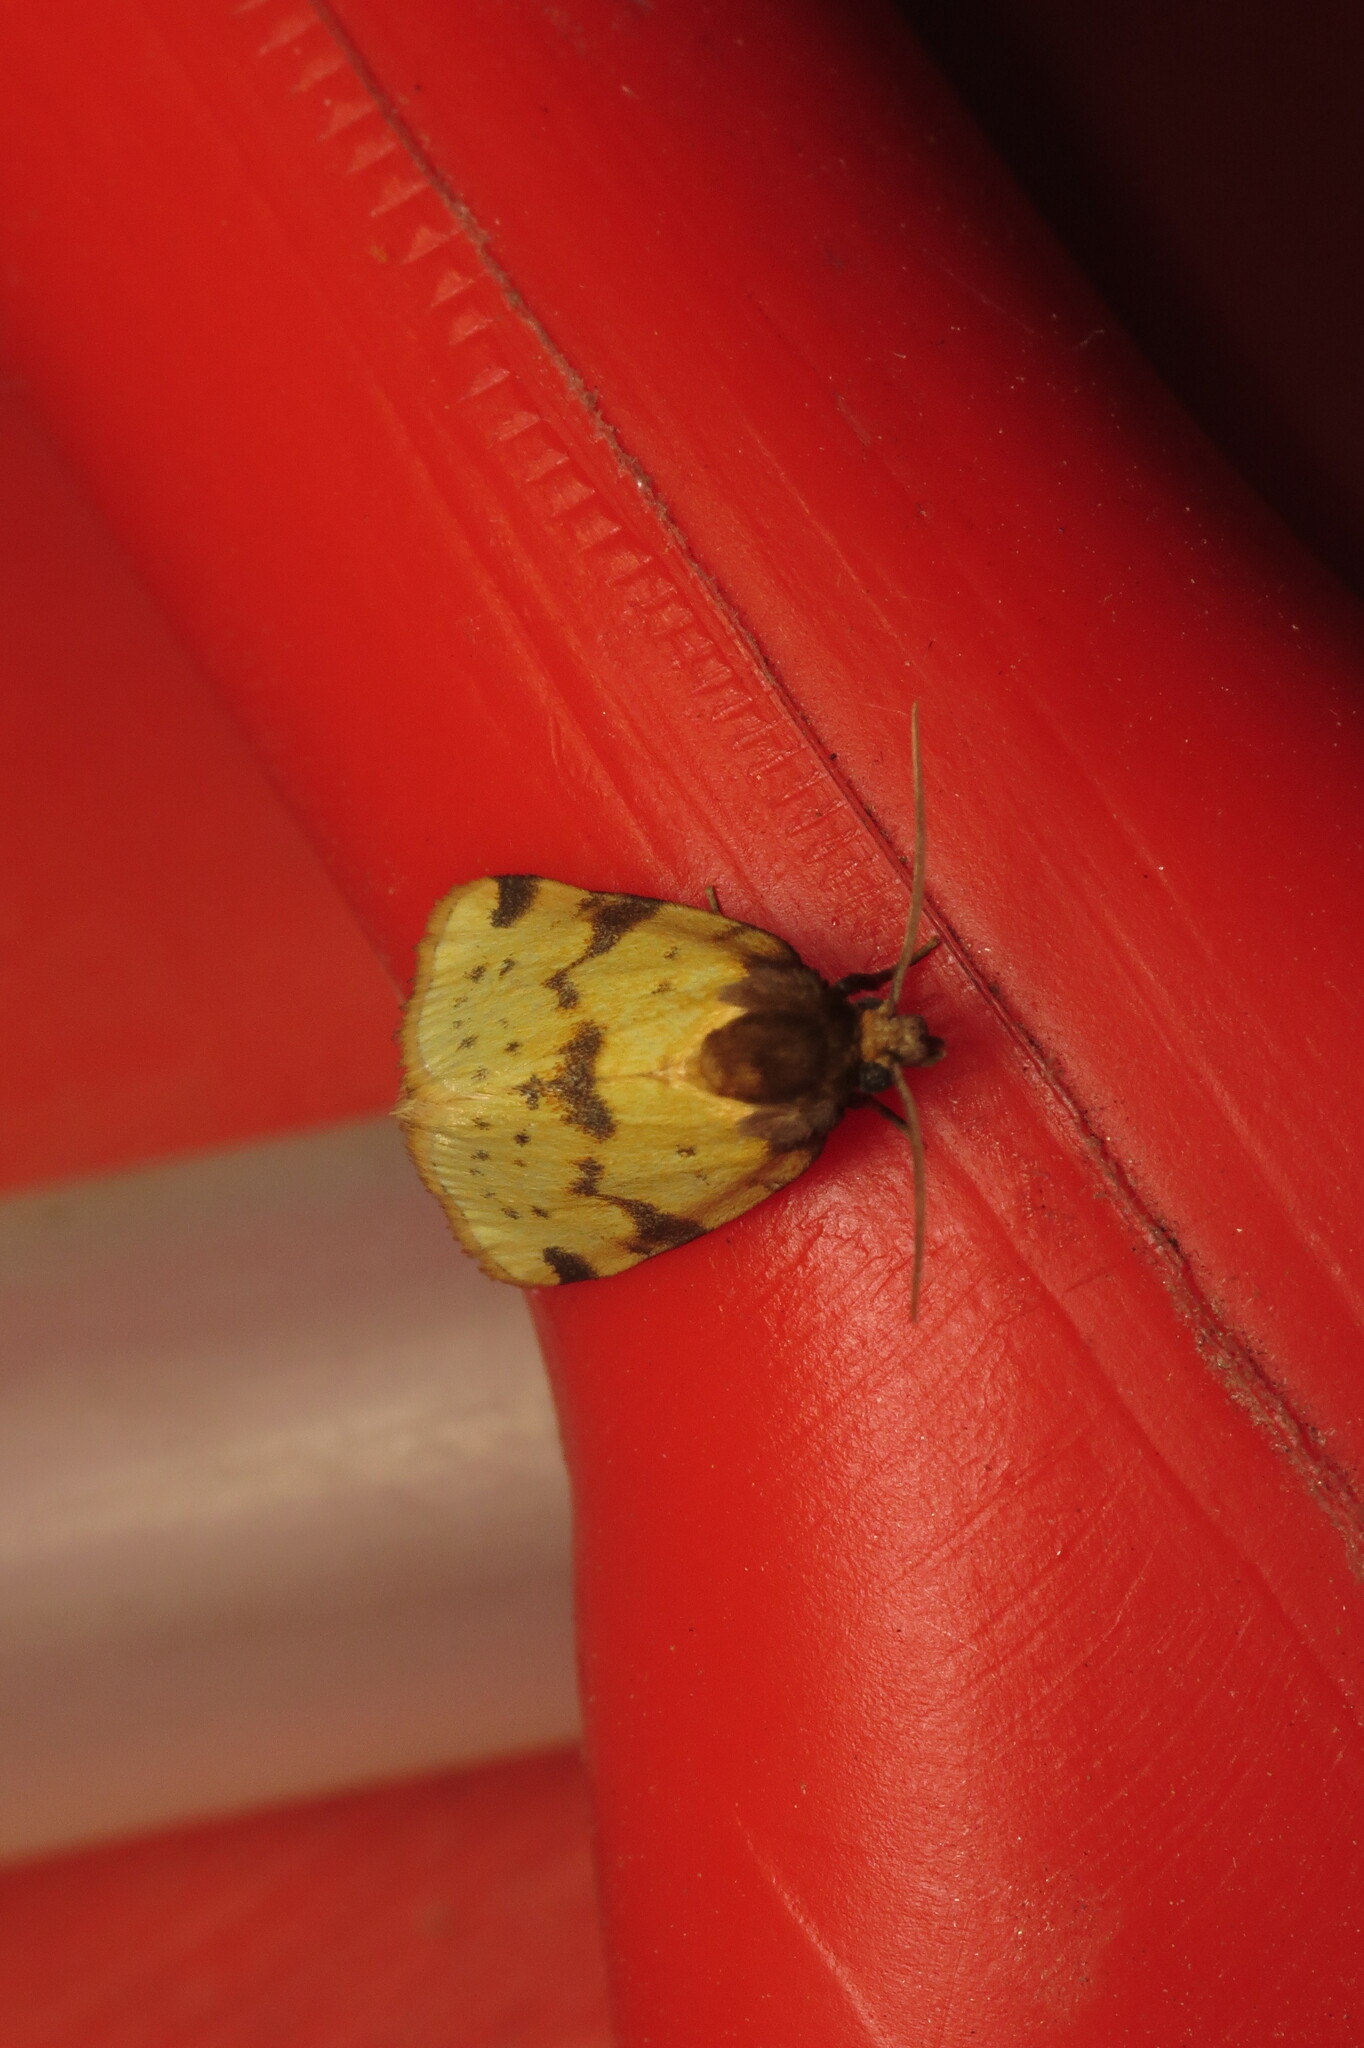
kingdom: Animalia
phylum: Arthropoda
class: Insecta
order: Lepidoptera
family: Noctuidae
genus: Azenia
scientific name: Azenia obtusa
